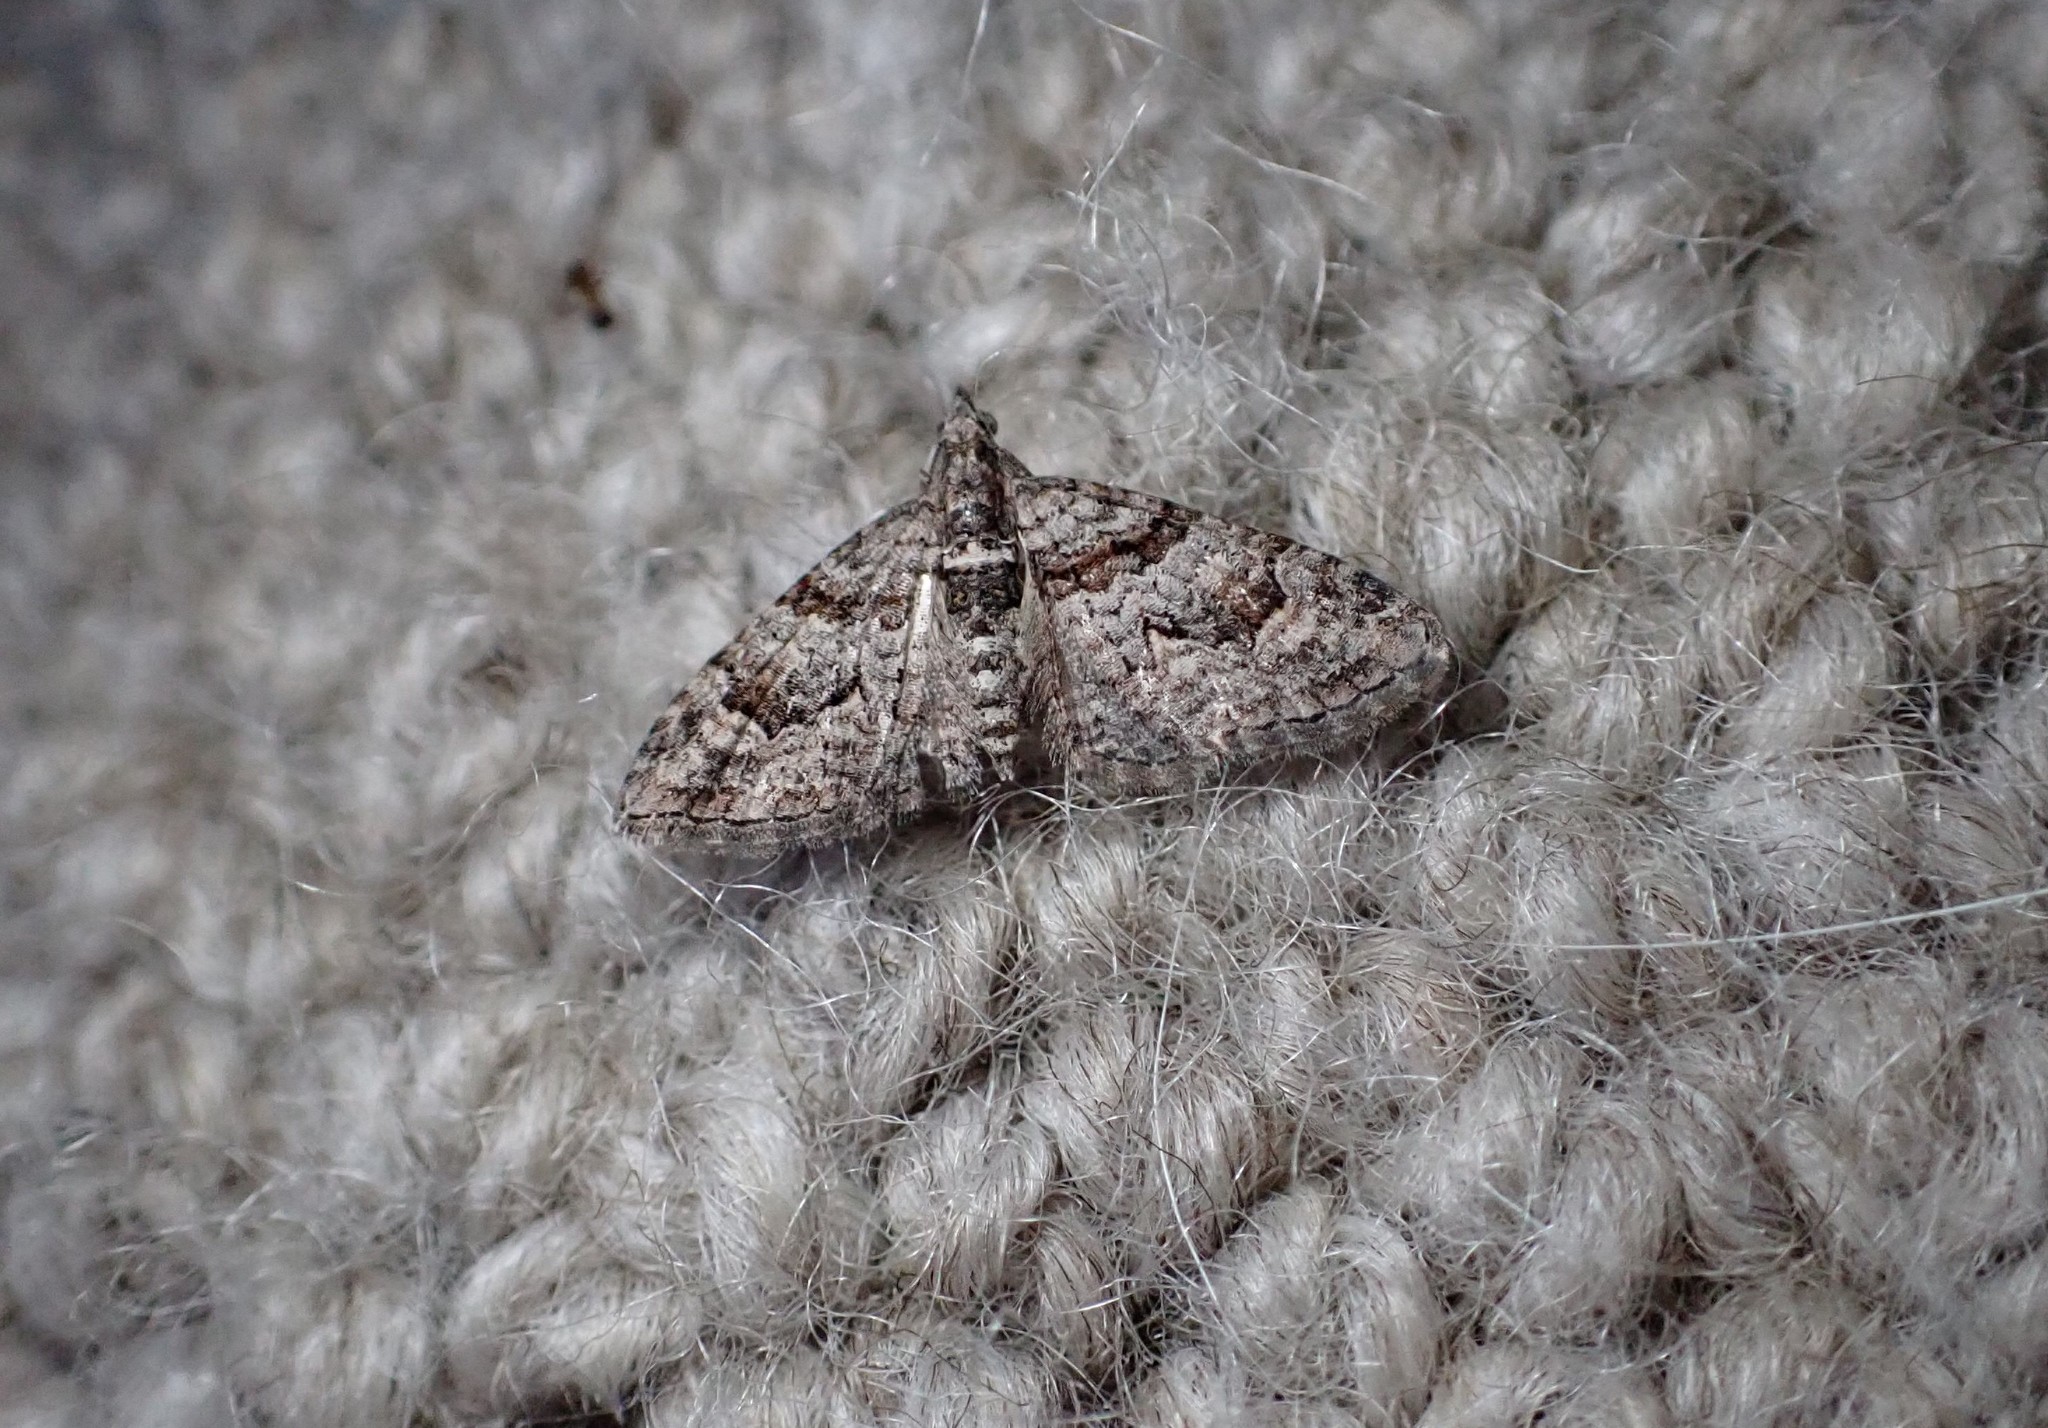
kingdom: Animalia
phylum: Arthropoda
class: Insecta
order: Lepidoptera
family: Geometridae
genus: Phrissogonus
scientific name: Phrissogonus laticostata
